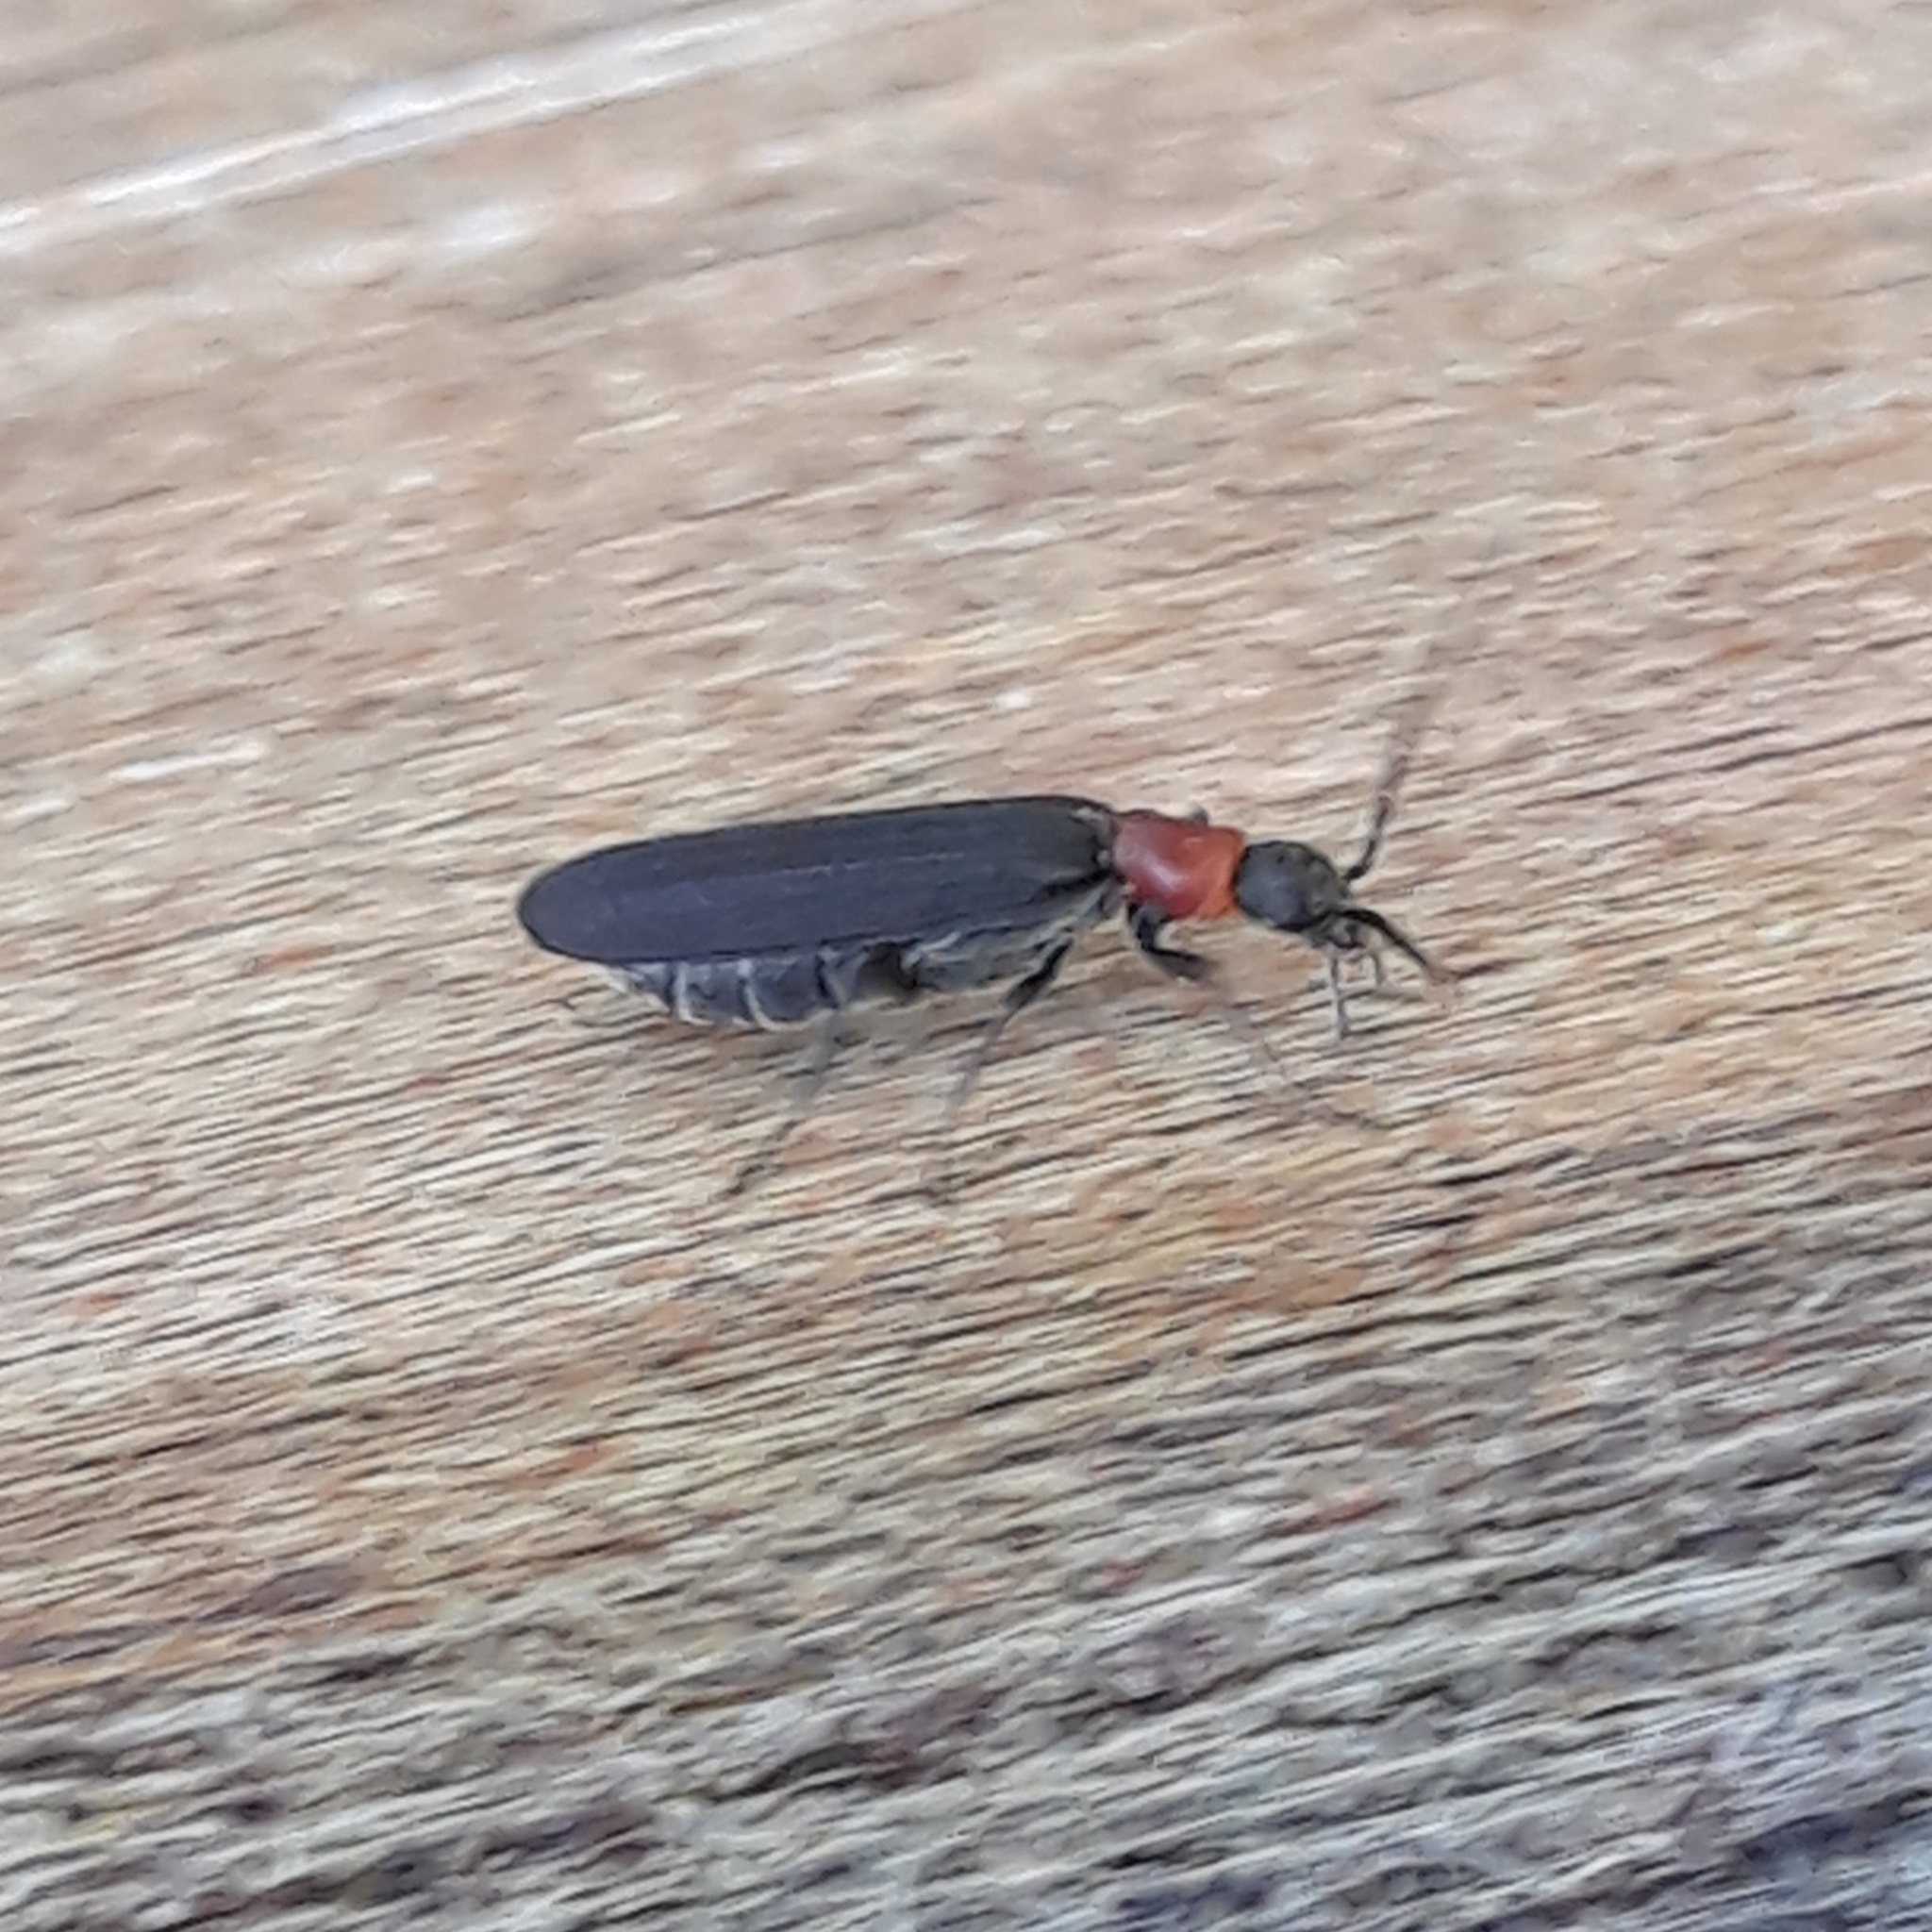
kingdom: Animalia
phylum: Arthropoda
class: Insecta
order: Coleoptera
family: Oedemeridae
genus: Ischnomera
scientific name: Ischnomera
